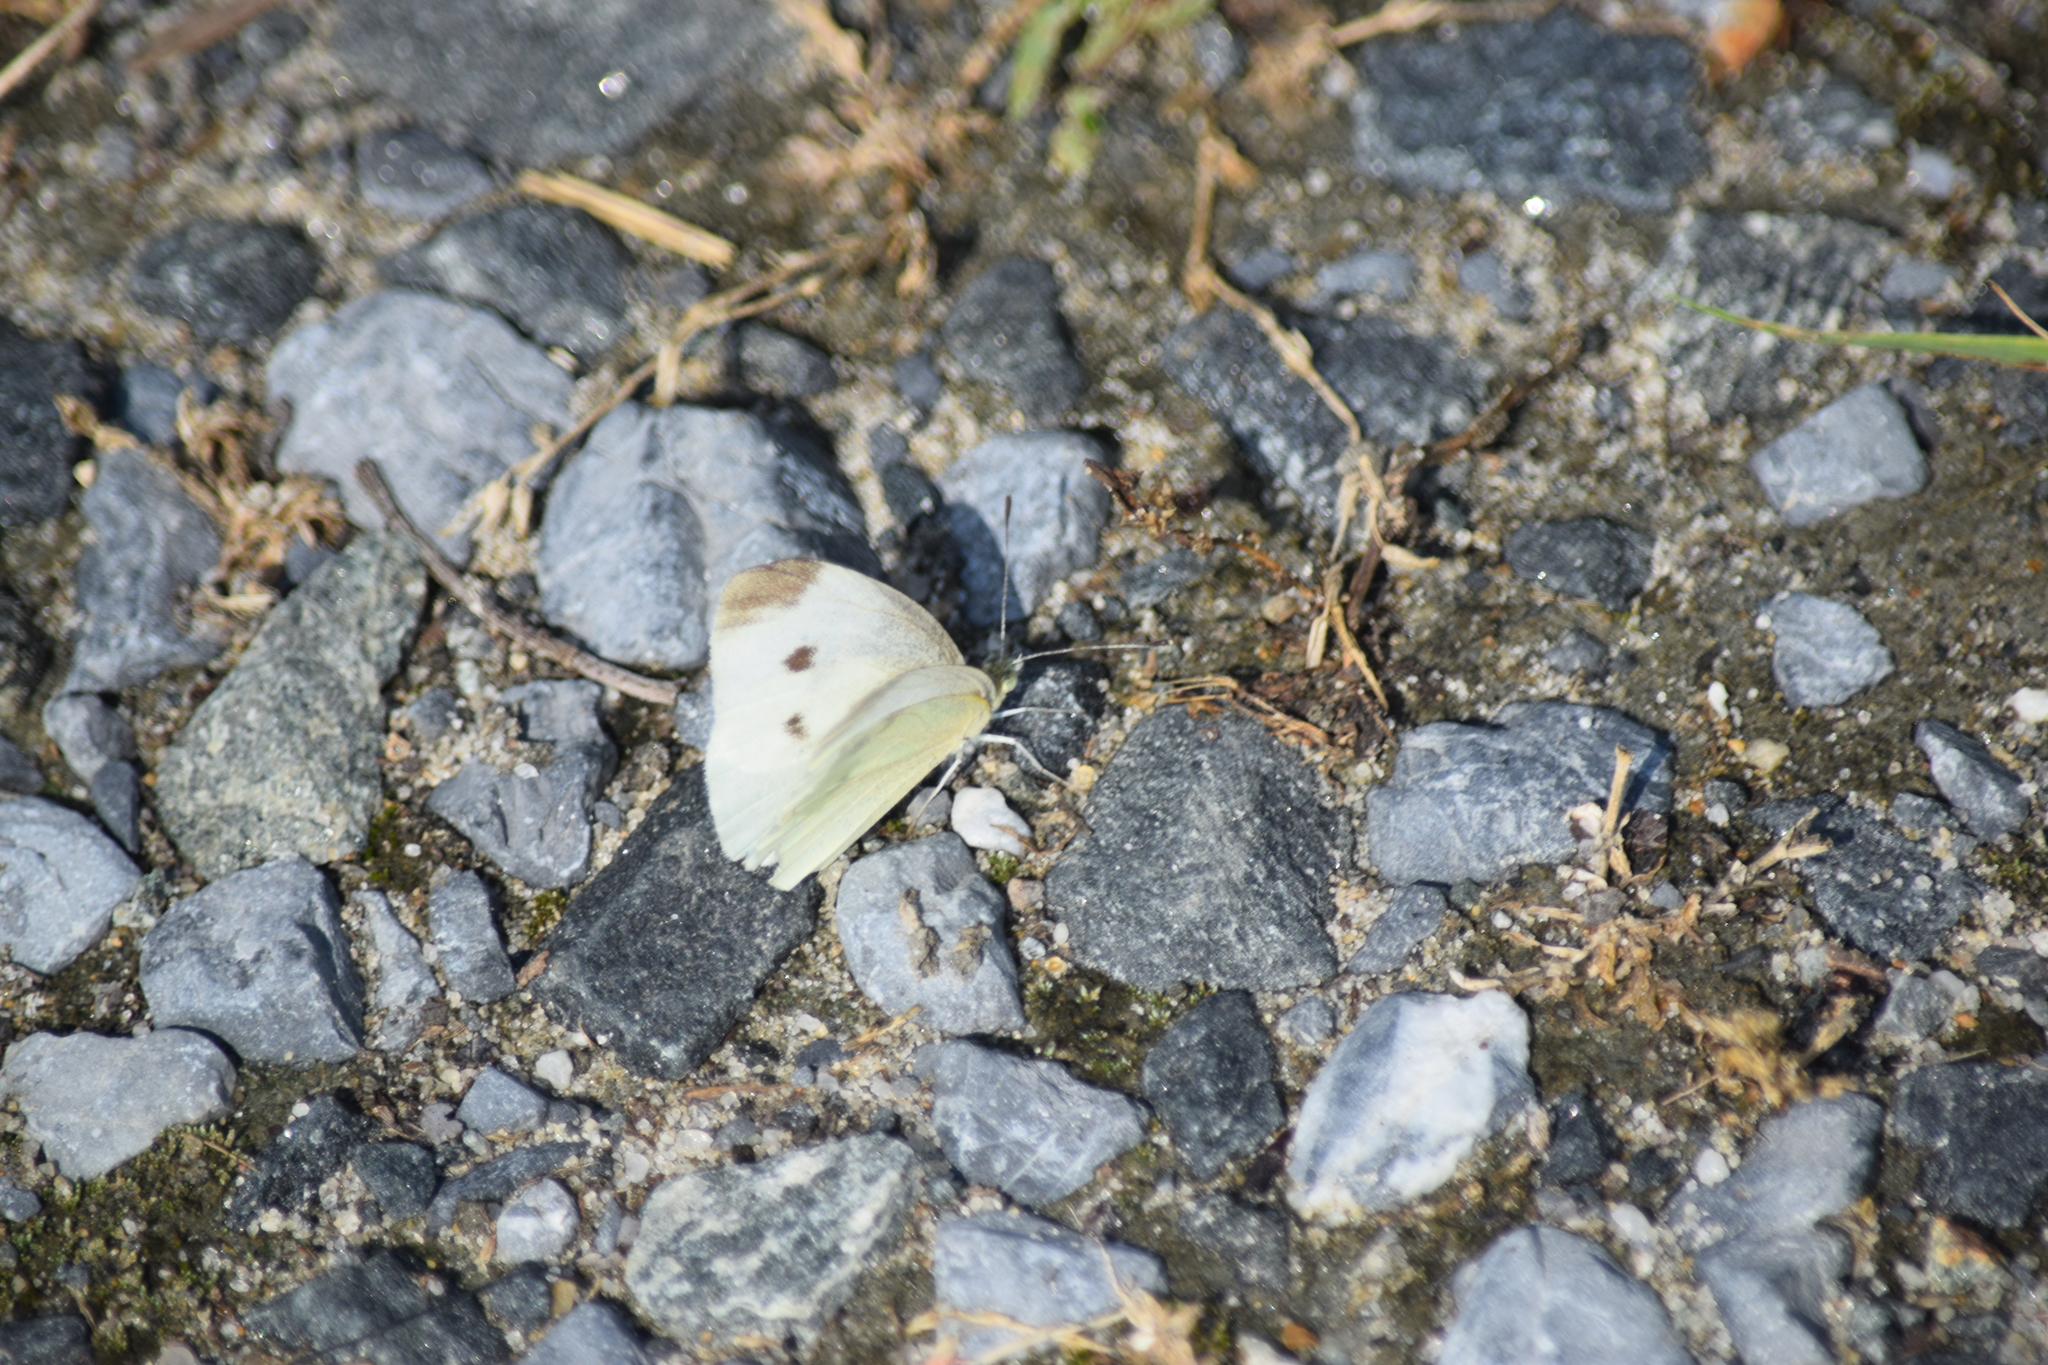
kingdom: Animalia
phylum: Arthropoda
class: Insecta
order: Lepidoptera
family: Pieridae
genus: Pieris
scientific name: Pieris rapae
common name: Small white
